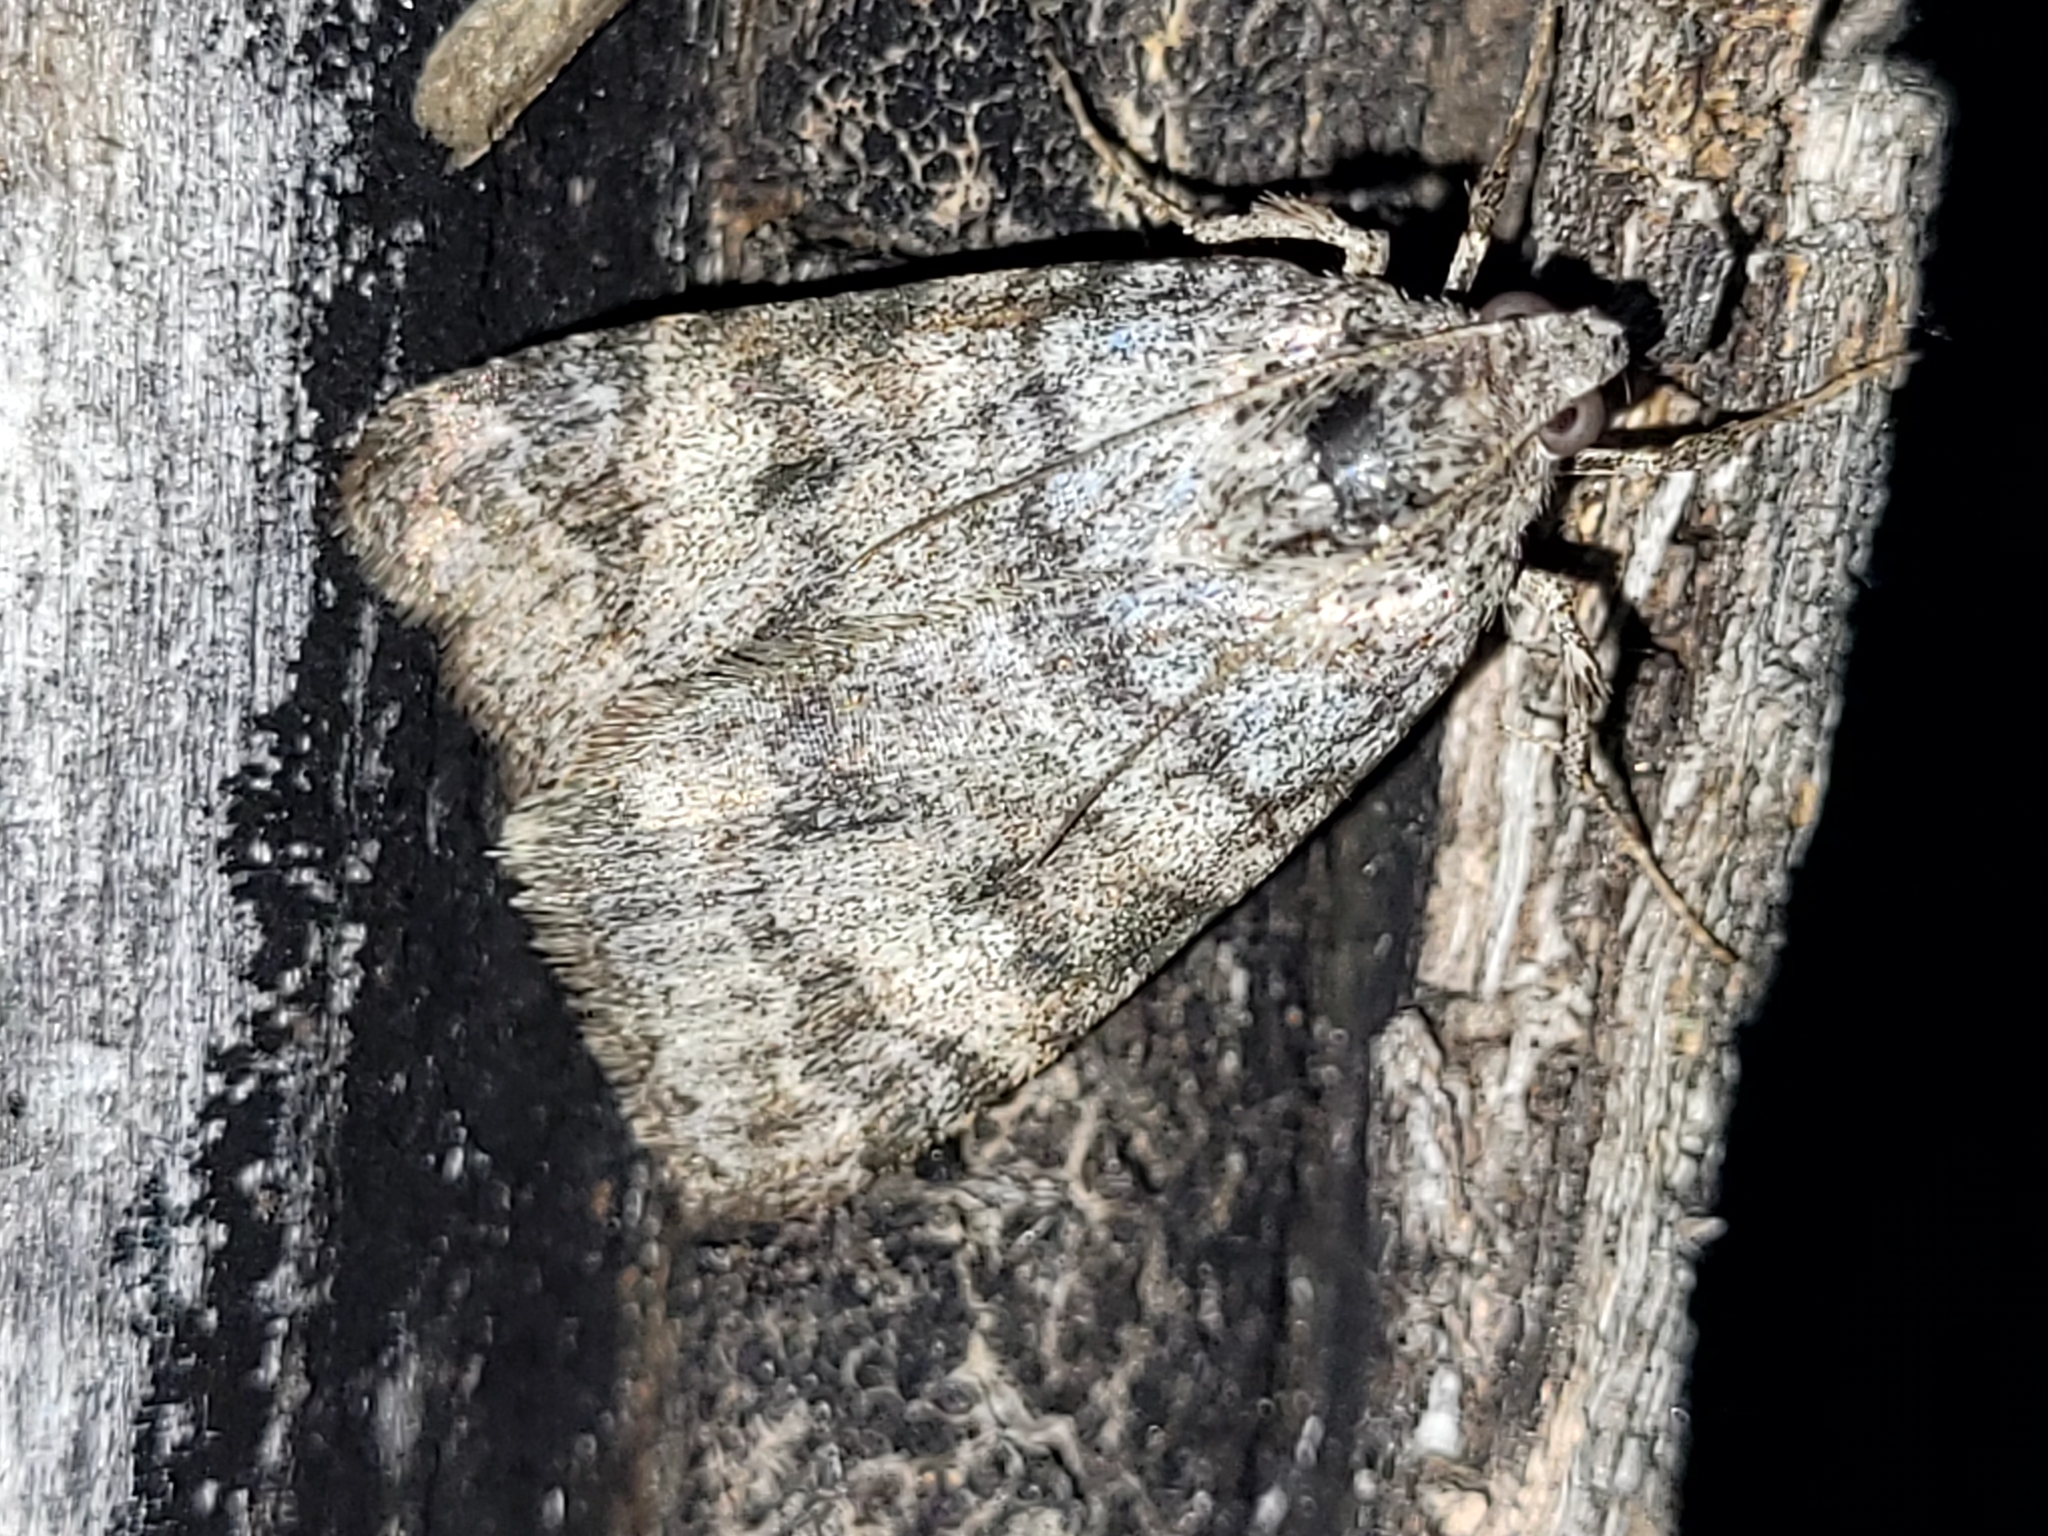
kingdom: Animalia
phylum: Arthropoda
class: Insecta
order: Lepidoptera
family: Erebidae
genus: Drasteria
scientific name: Drasteria hudsonica
